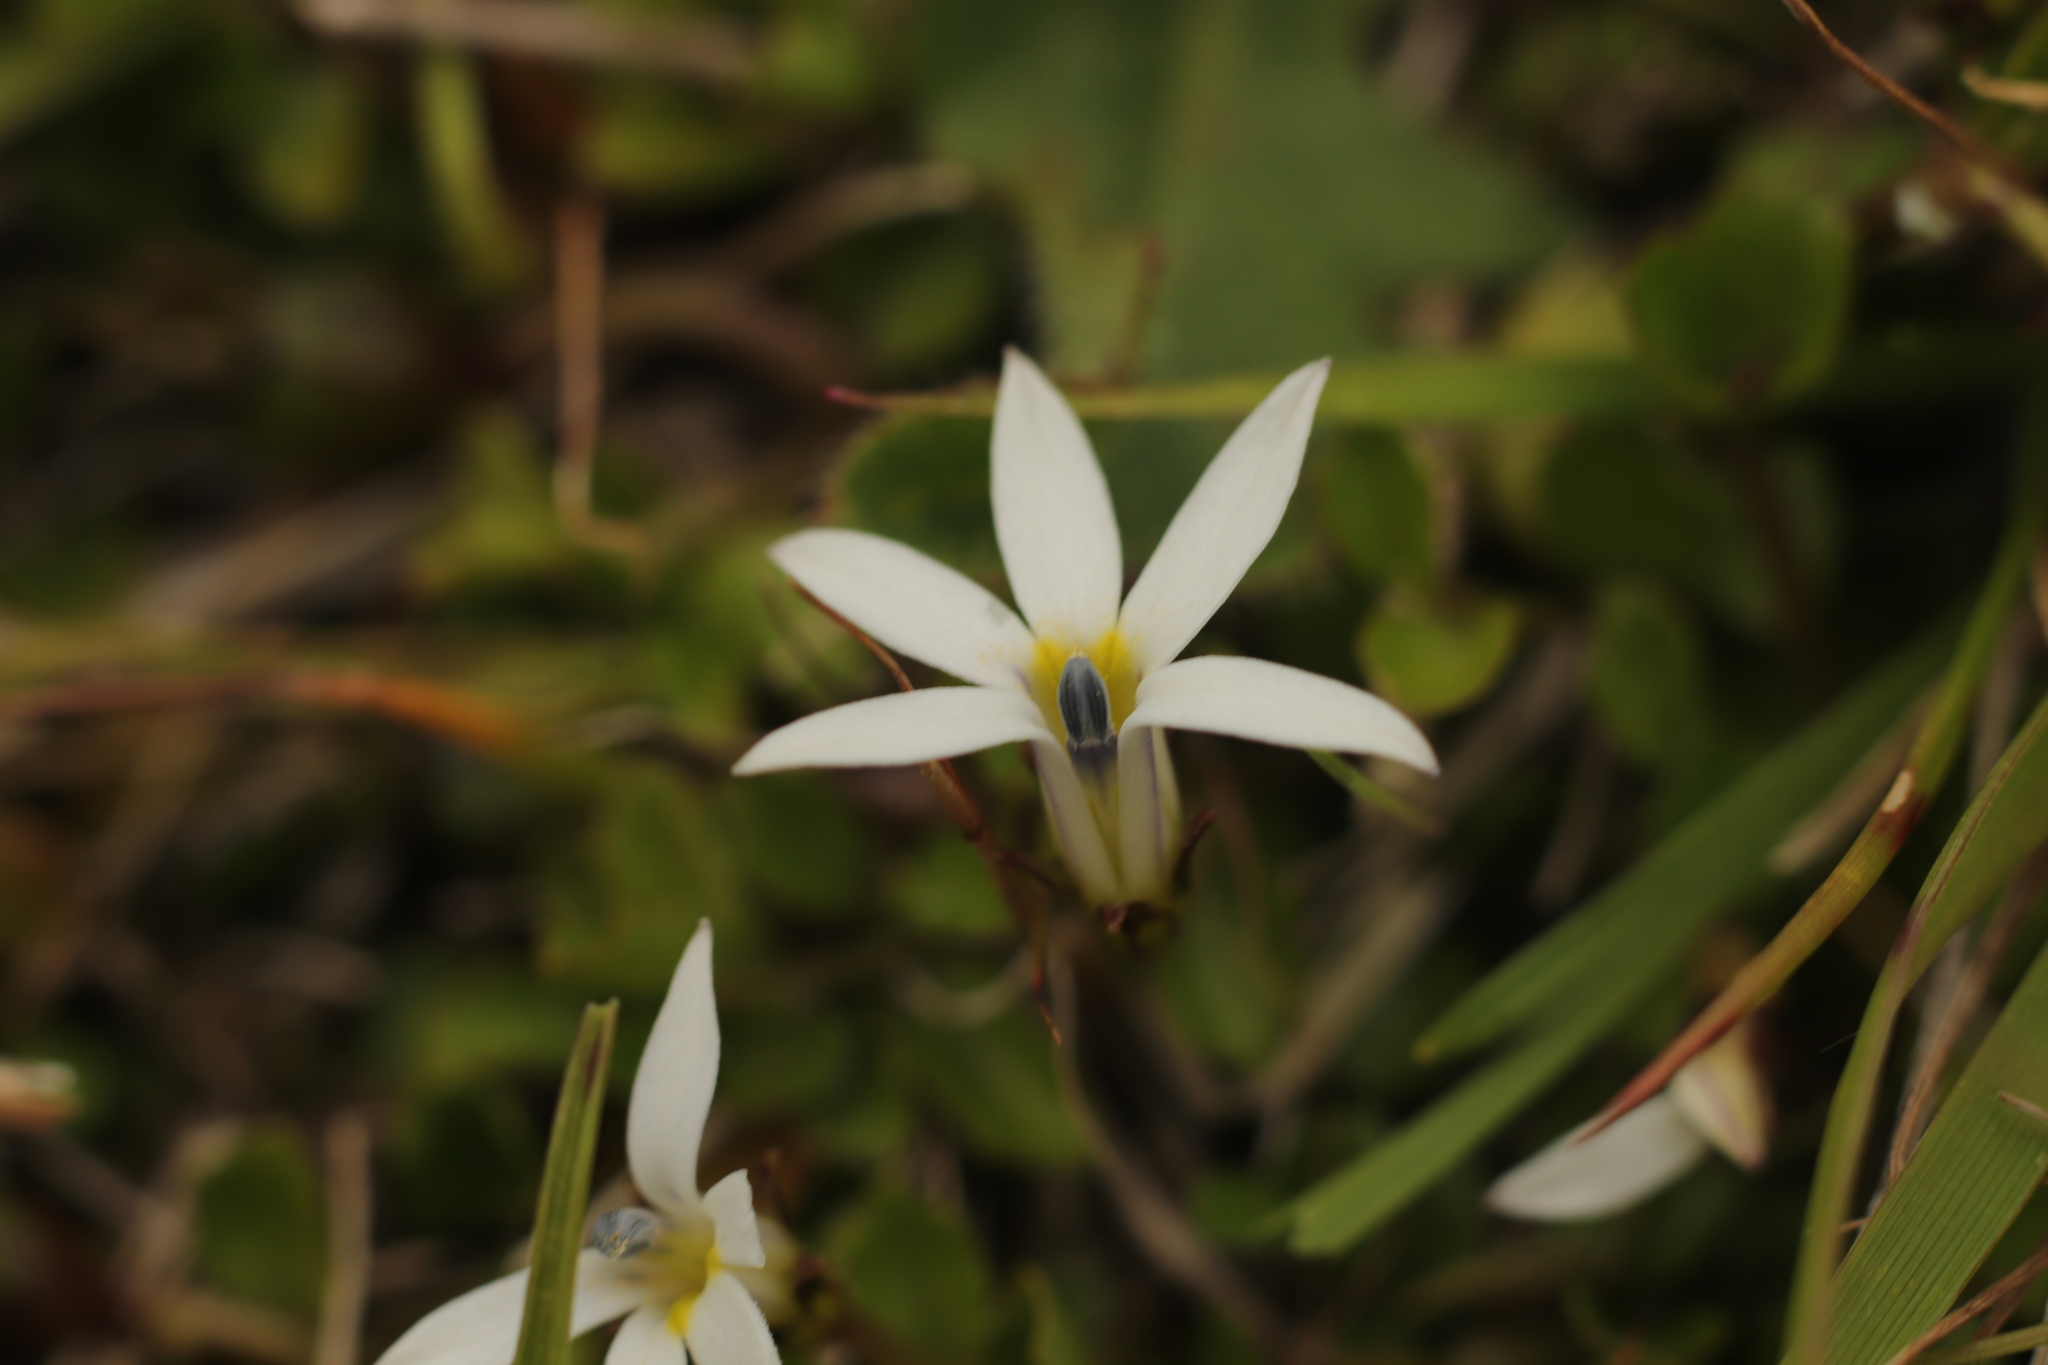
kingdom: Plantae
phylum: Tracheophyta
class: Magnoliopsida
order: Asterales
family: Campanulaceae
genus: Lobelia
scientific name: Lobelia angulata
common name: Lawn lobelia
